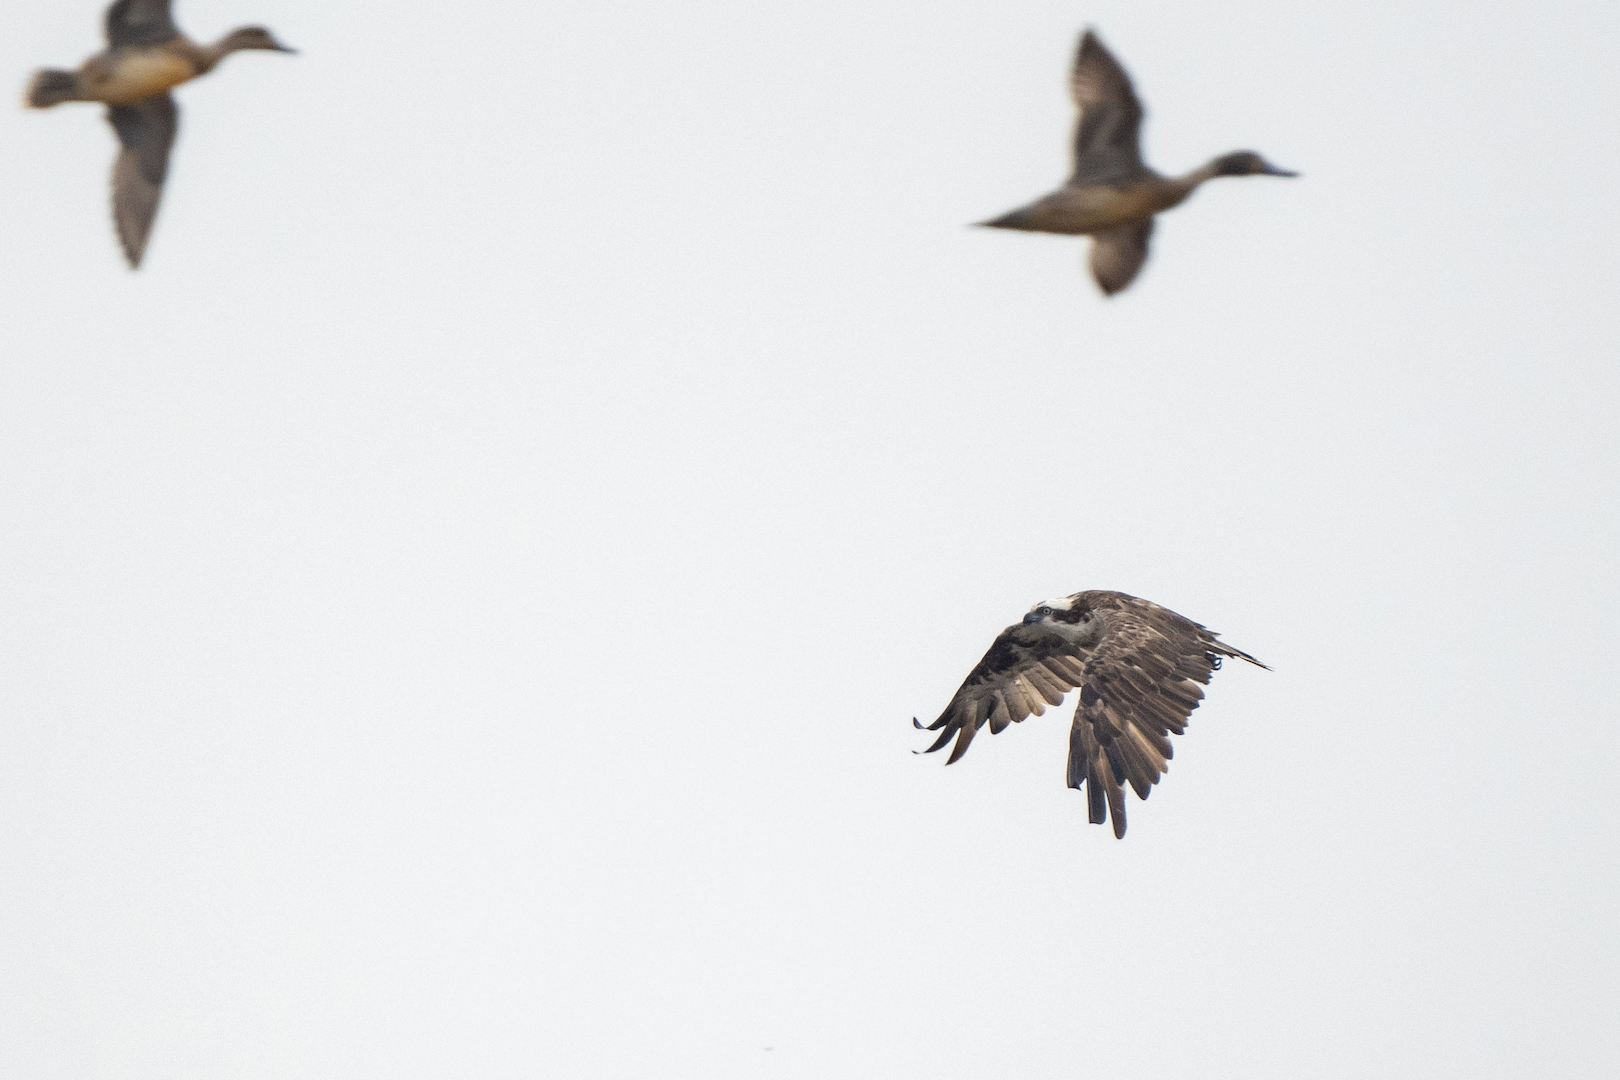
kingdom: Animalia
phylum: Chordata
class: Aves
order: Accipitriformes
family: Pandionidae
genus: Pandion
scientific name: Pandion haliaetus
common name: Osprey
